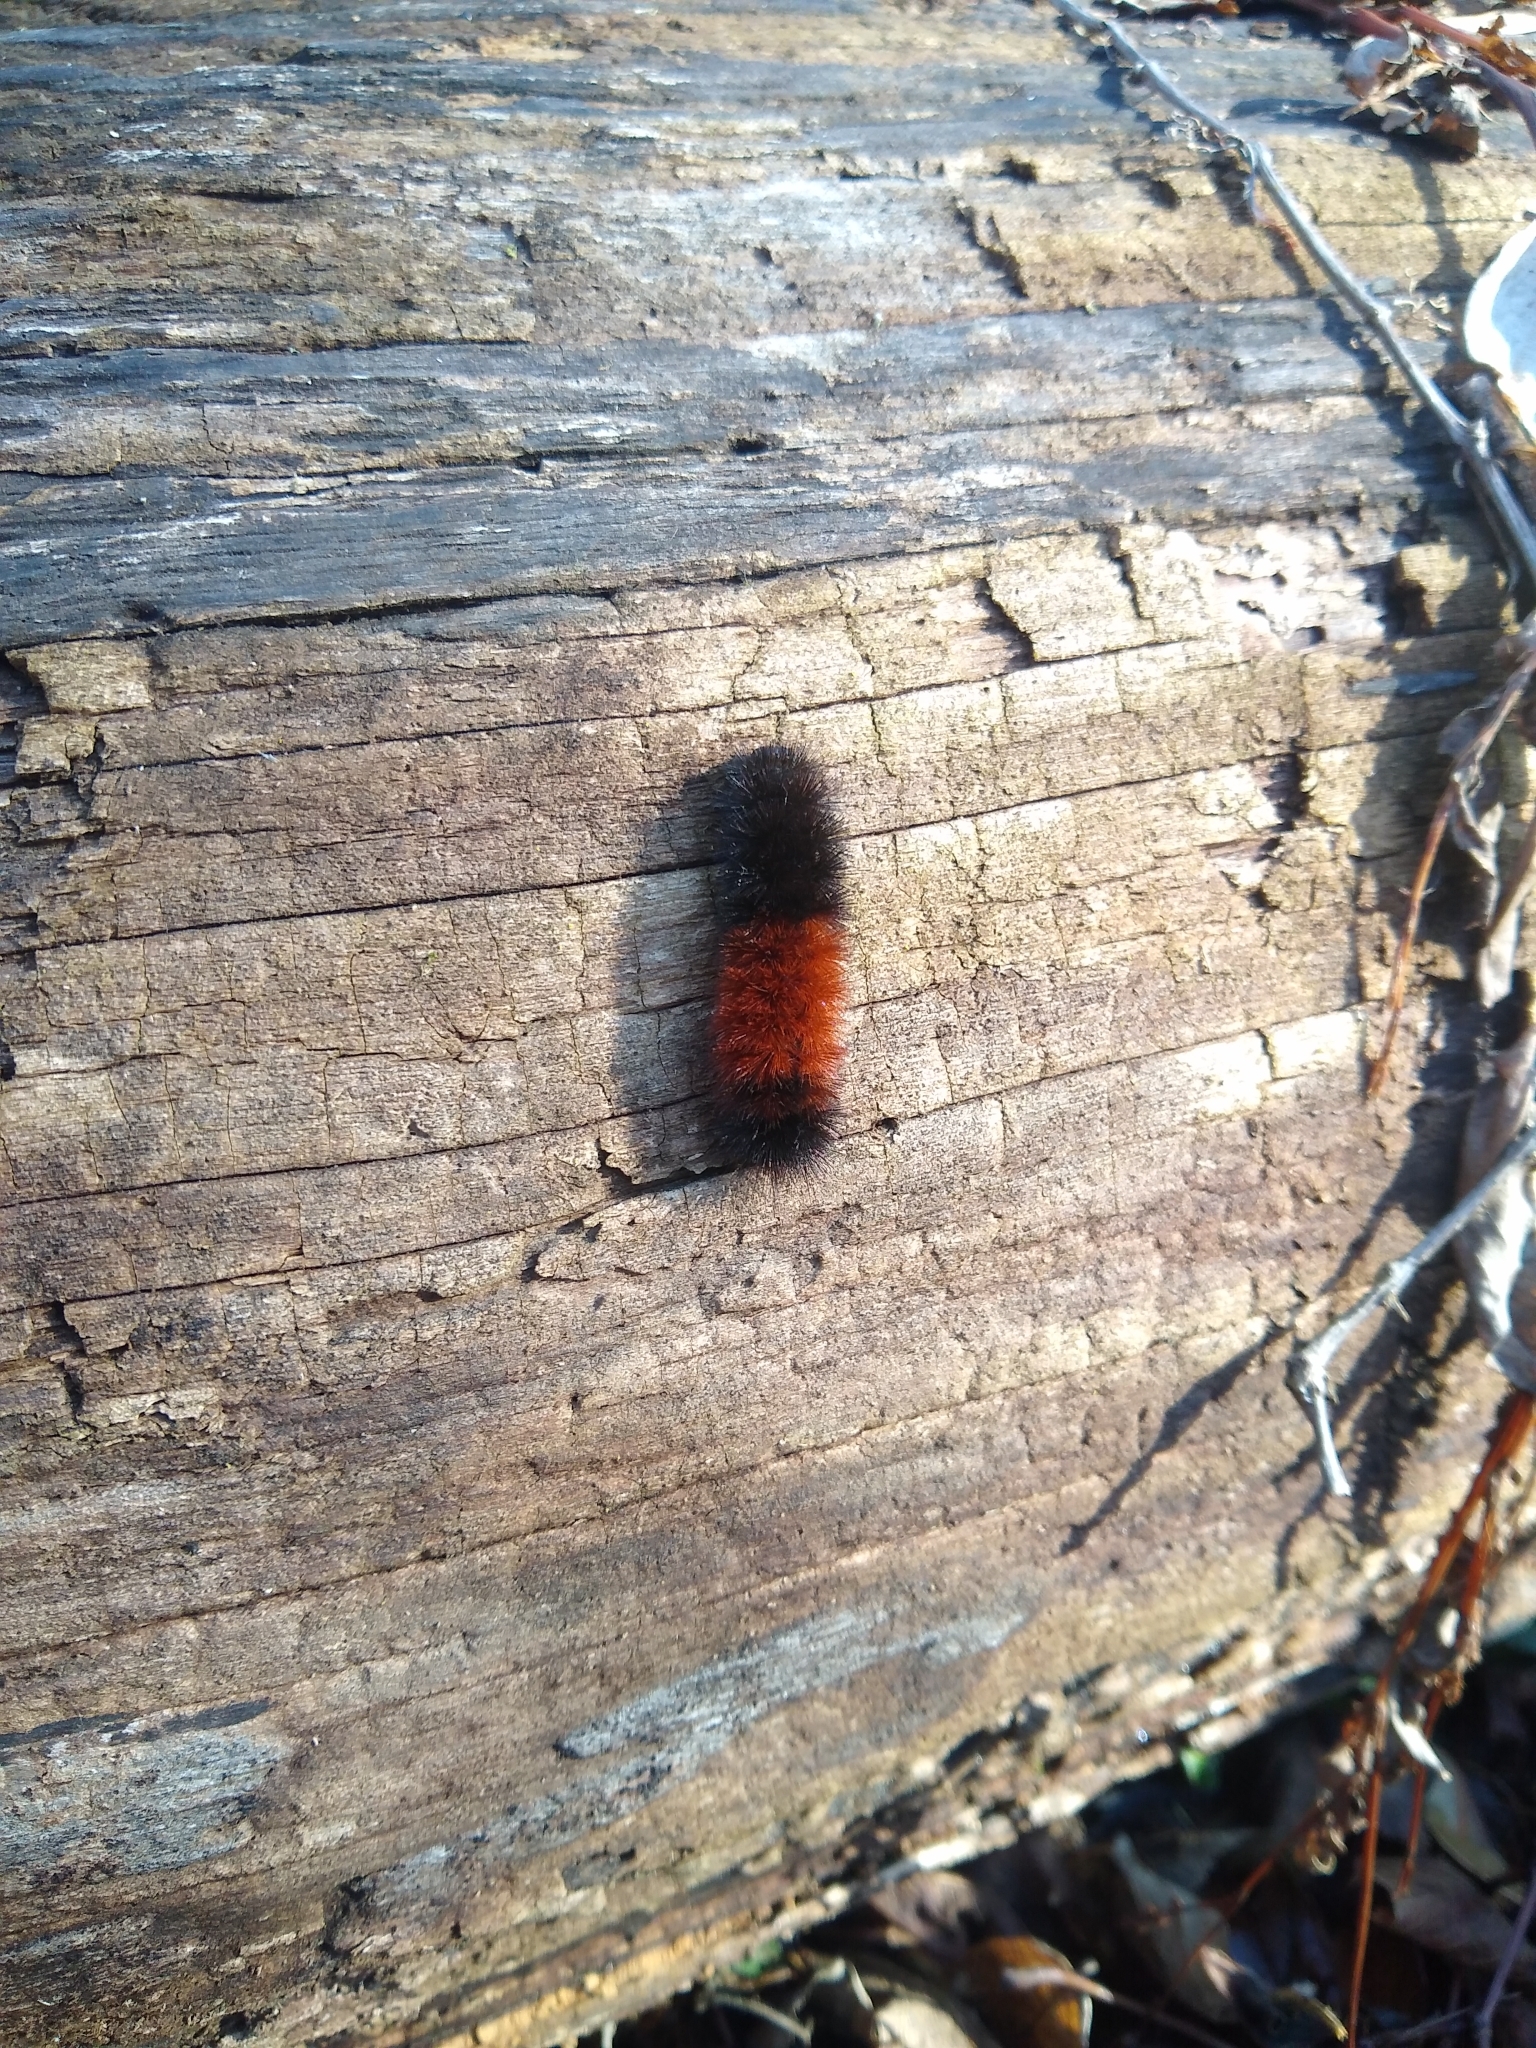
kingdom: Animalia
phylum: Arthropoda
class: Insecta
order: Lepidoptera
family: Erebidae
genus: Pyrrharctia
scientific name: Pyrrharctia isabella
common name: Isabella tiger moth
